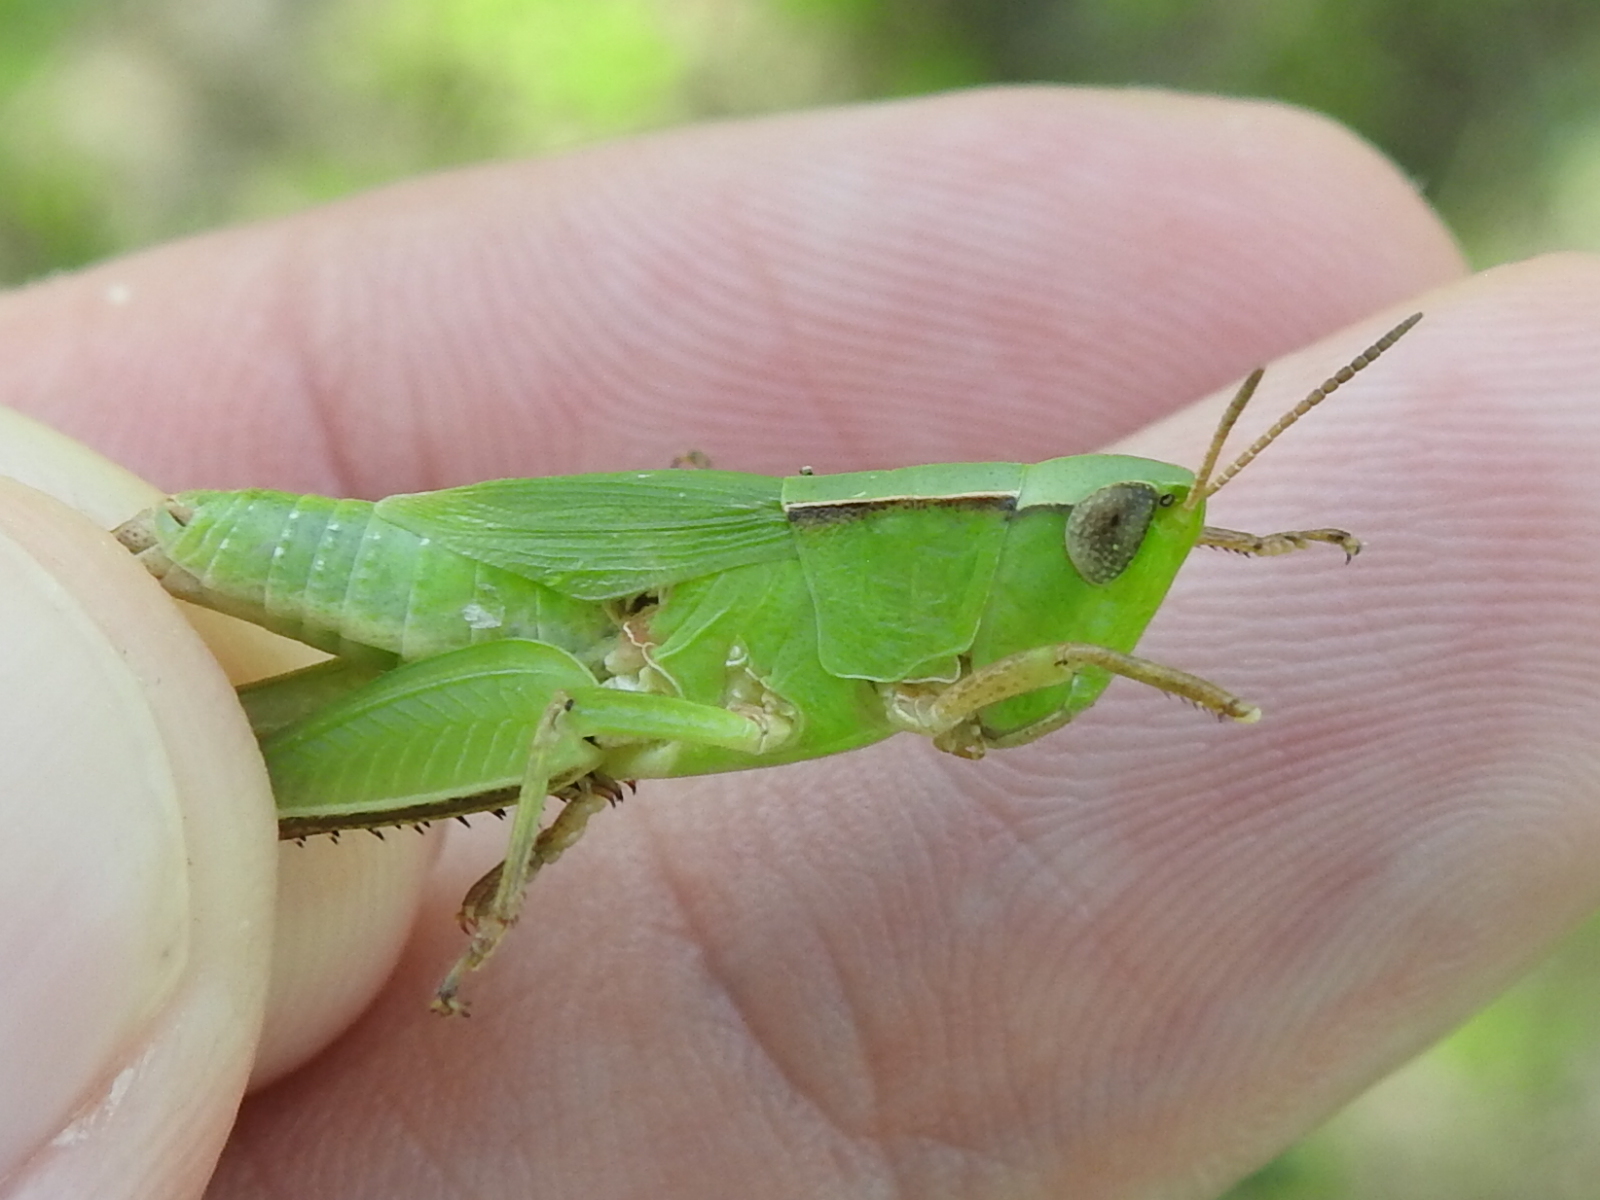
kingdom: Animalia
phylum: Arthropoda
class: Insecta
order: Orthoptera
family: Acrididae
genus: Dichromorpha
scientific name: Dichromorpha viridis
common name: Short-winged green grasshopper
